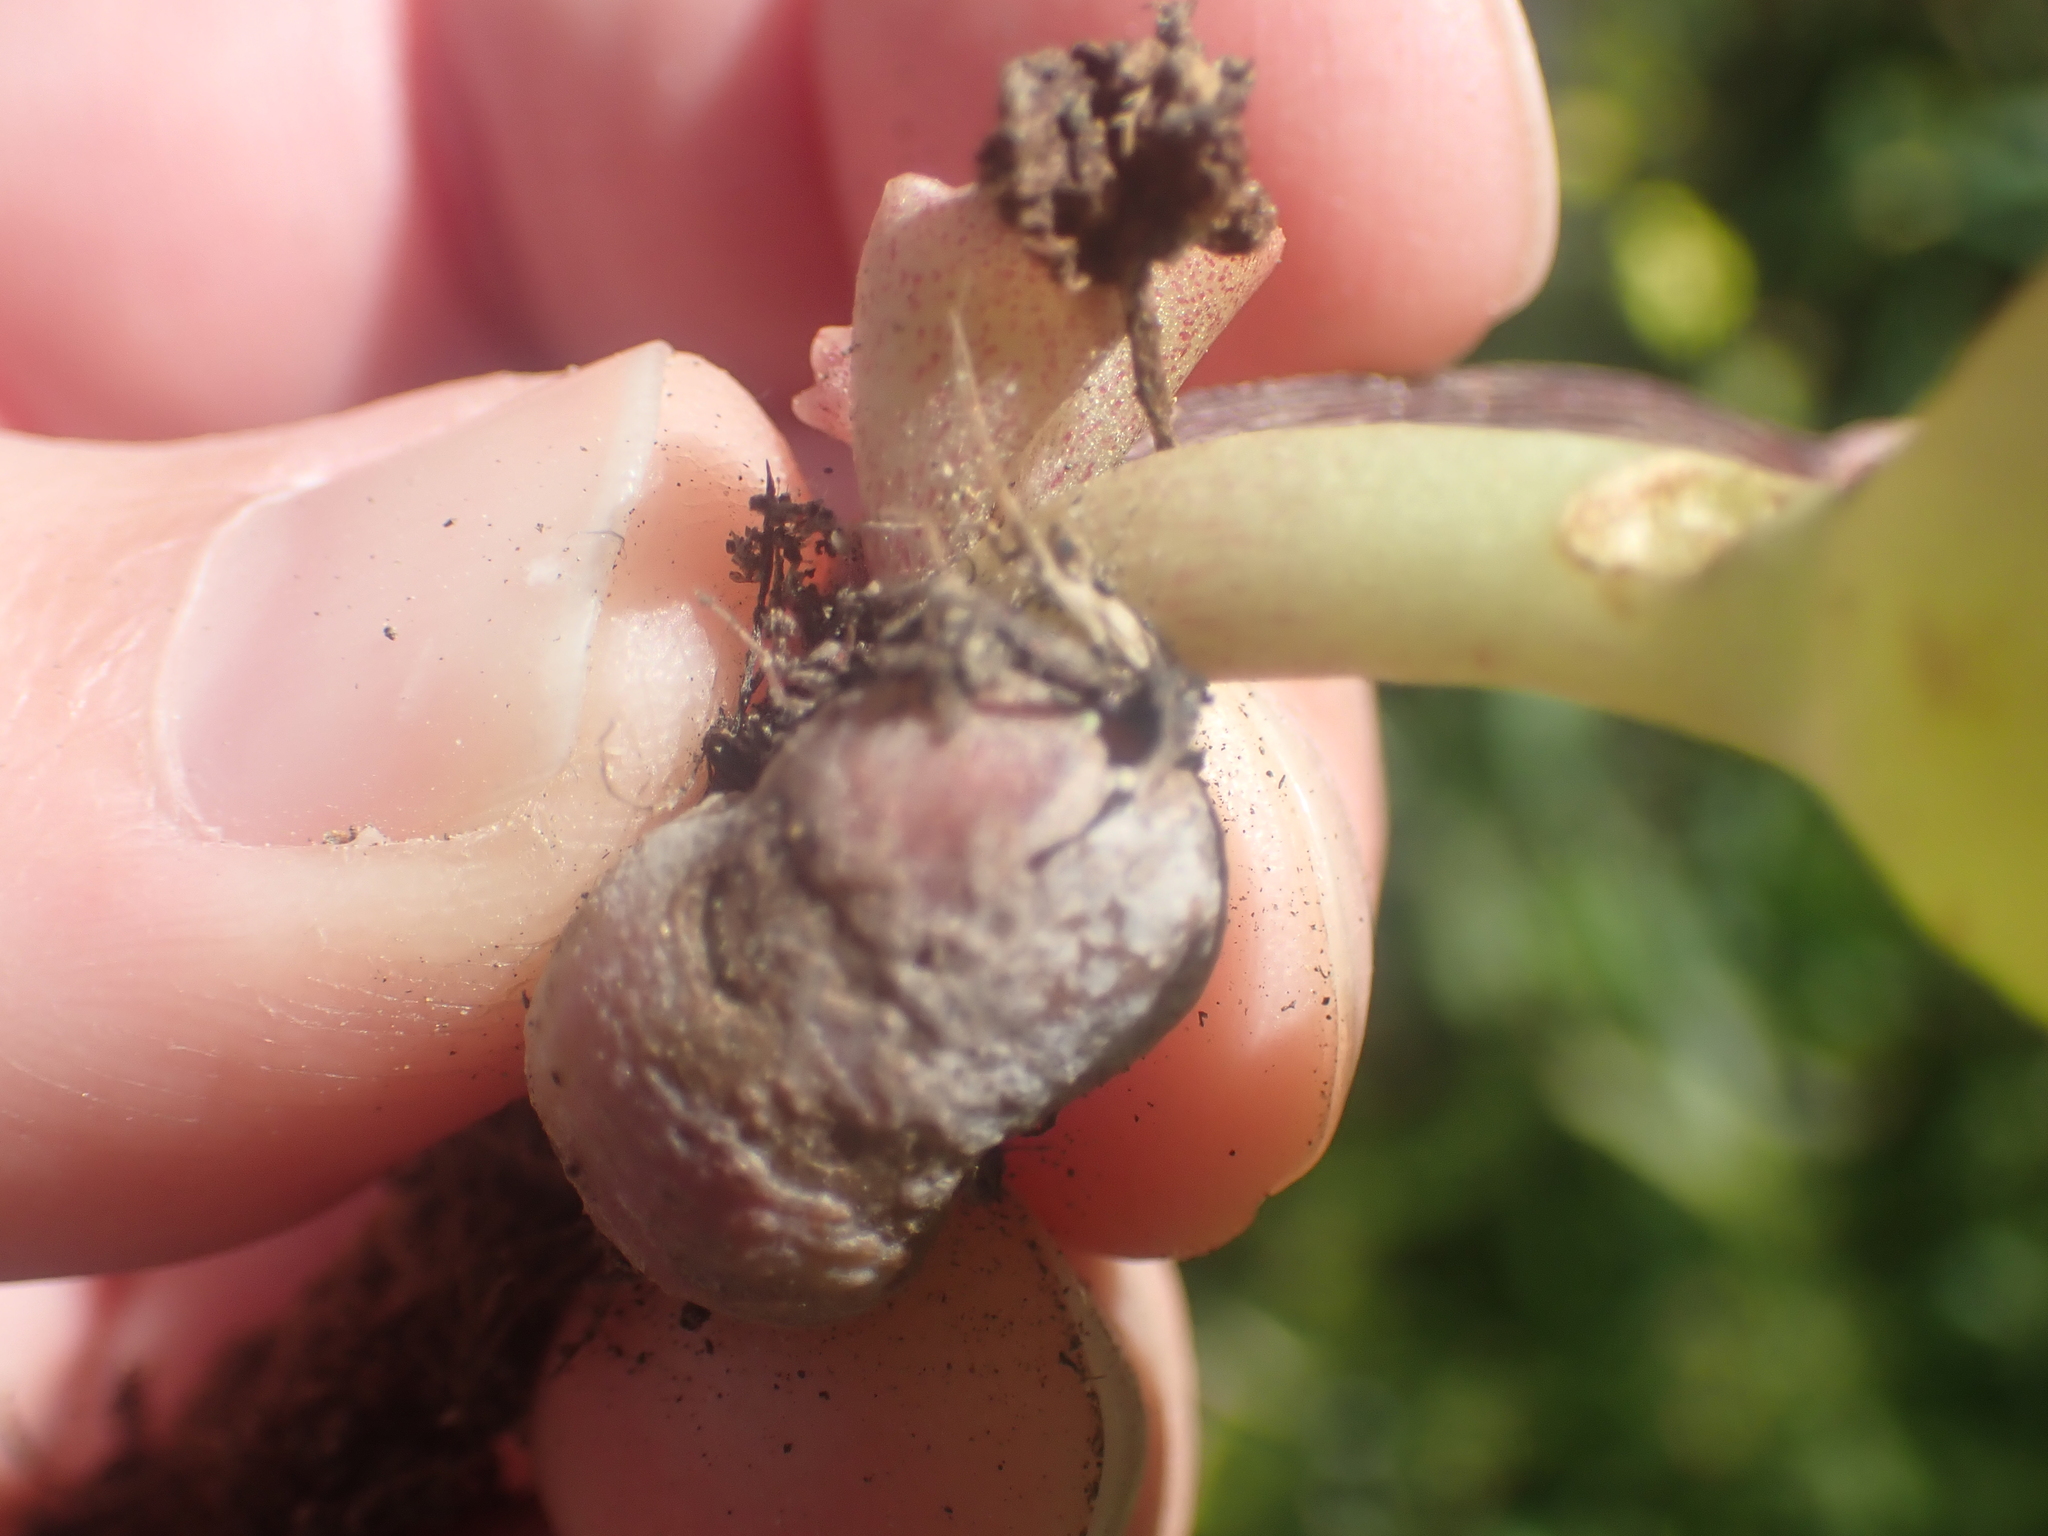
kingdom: Plantae
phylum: Tracheophyta
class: Magnoliopsida
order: Saxifragales
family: Crassulaceae
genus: Umbilicus
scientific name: Umbilicus horizontalis
